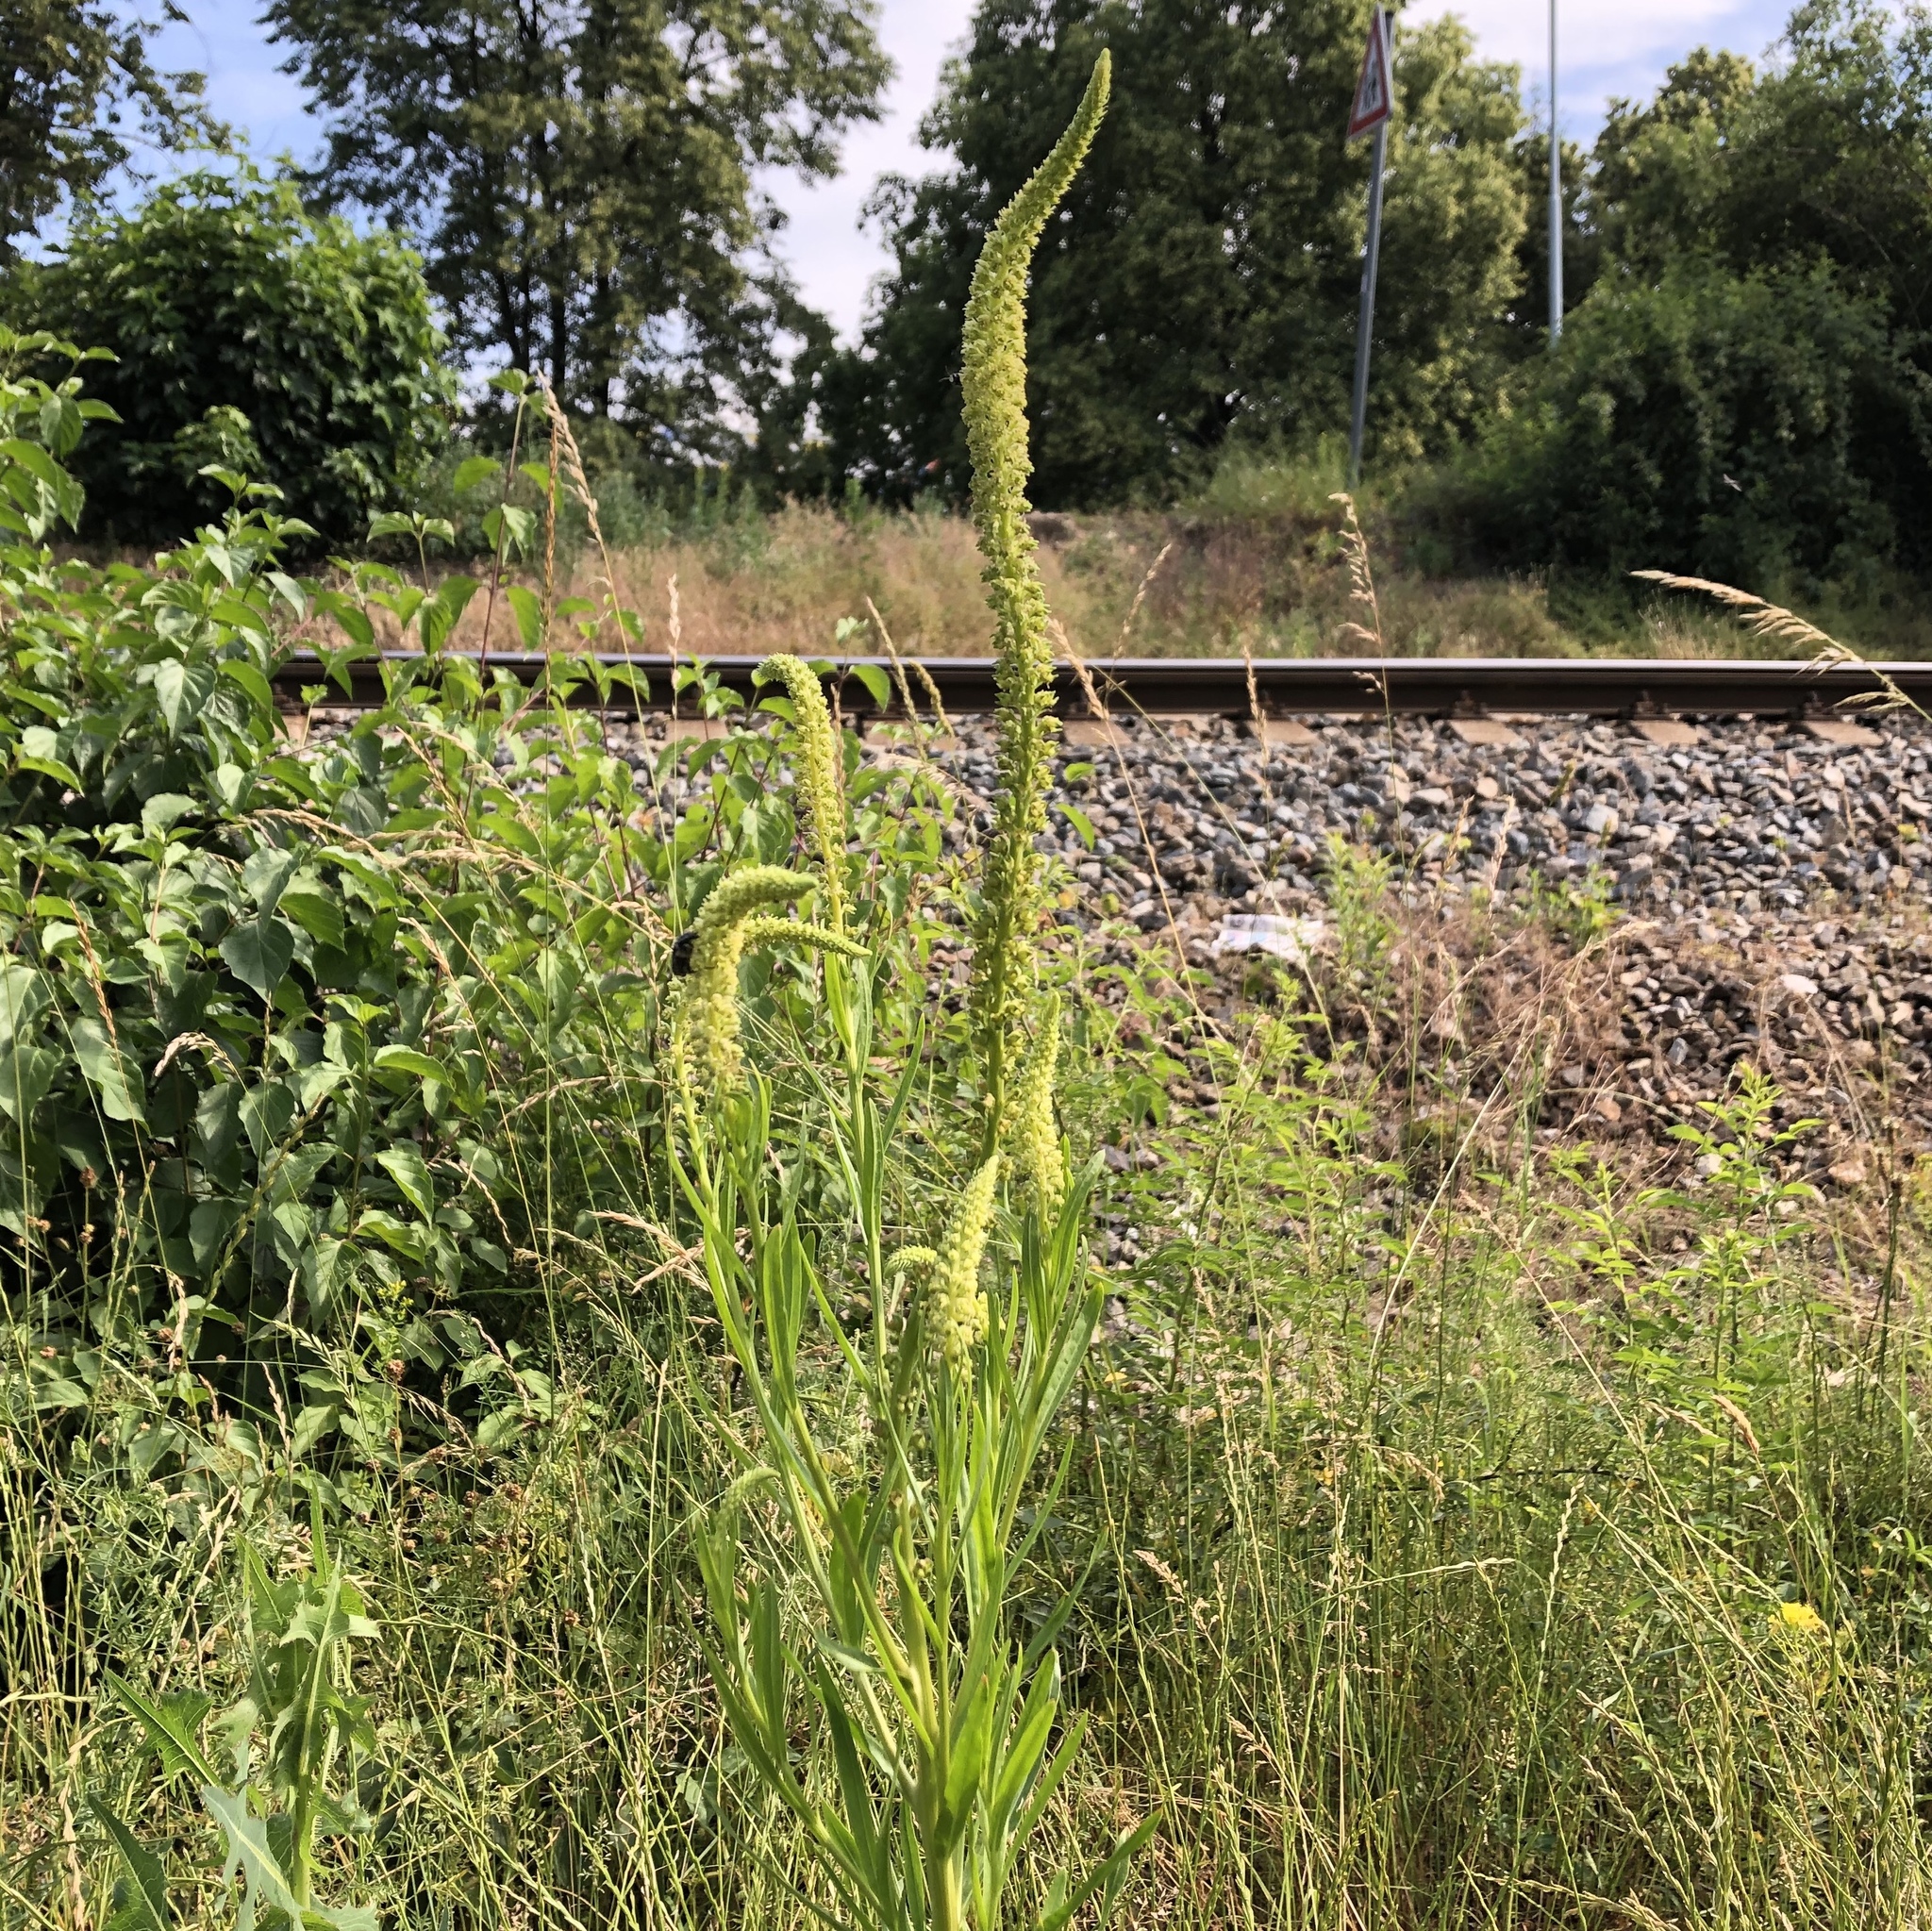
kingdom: Plantae
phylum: Tracheophyta
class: Magnoliopsida
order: Brassicales
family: Resedaceae
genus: Reseda
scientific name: Reseda luteola
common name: Weld
